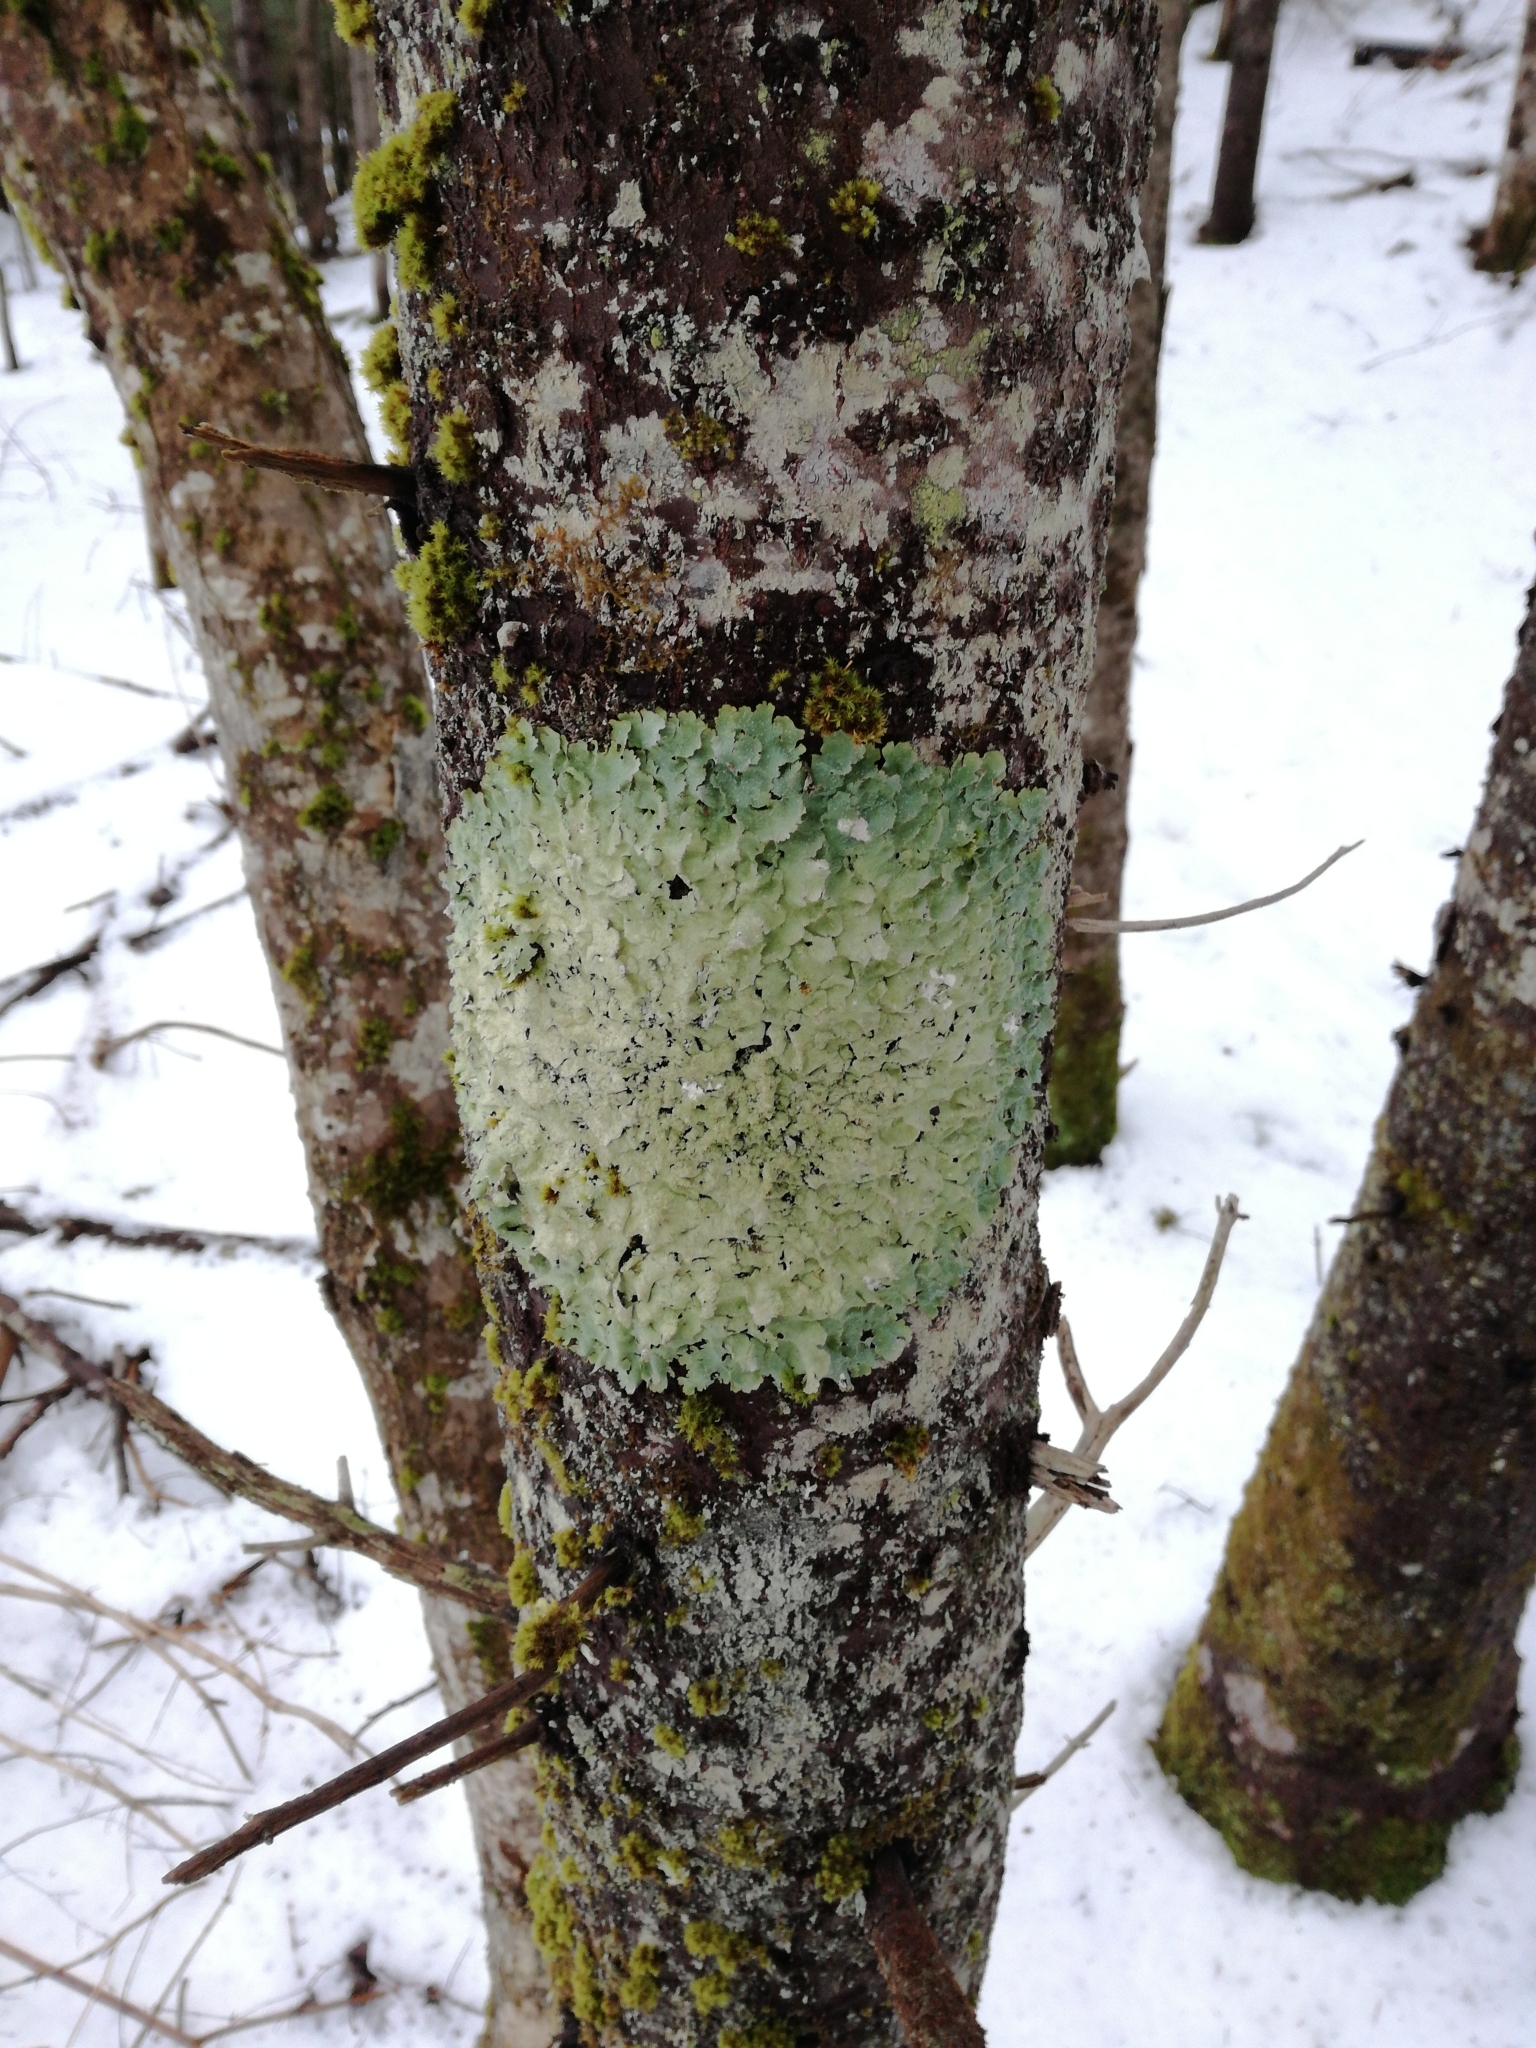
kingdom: Fungi
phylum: Ascomycota
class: Lecanoromycetes
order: Lecanorales
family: Parmeliaceae
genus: Punctelia
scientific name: Punctelia rudecta
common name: Rough speckled shield lichen
